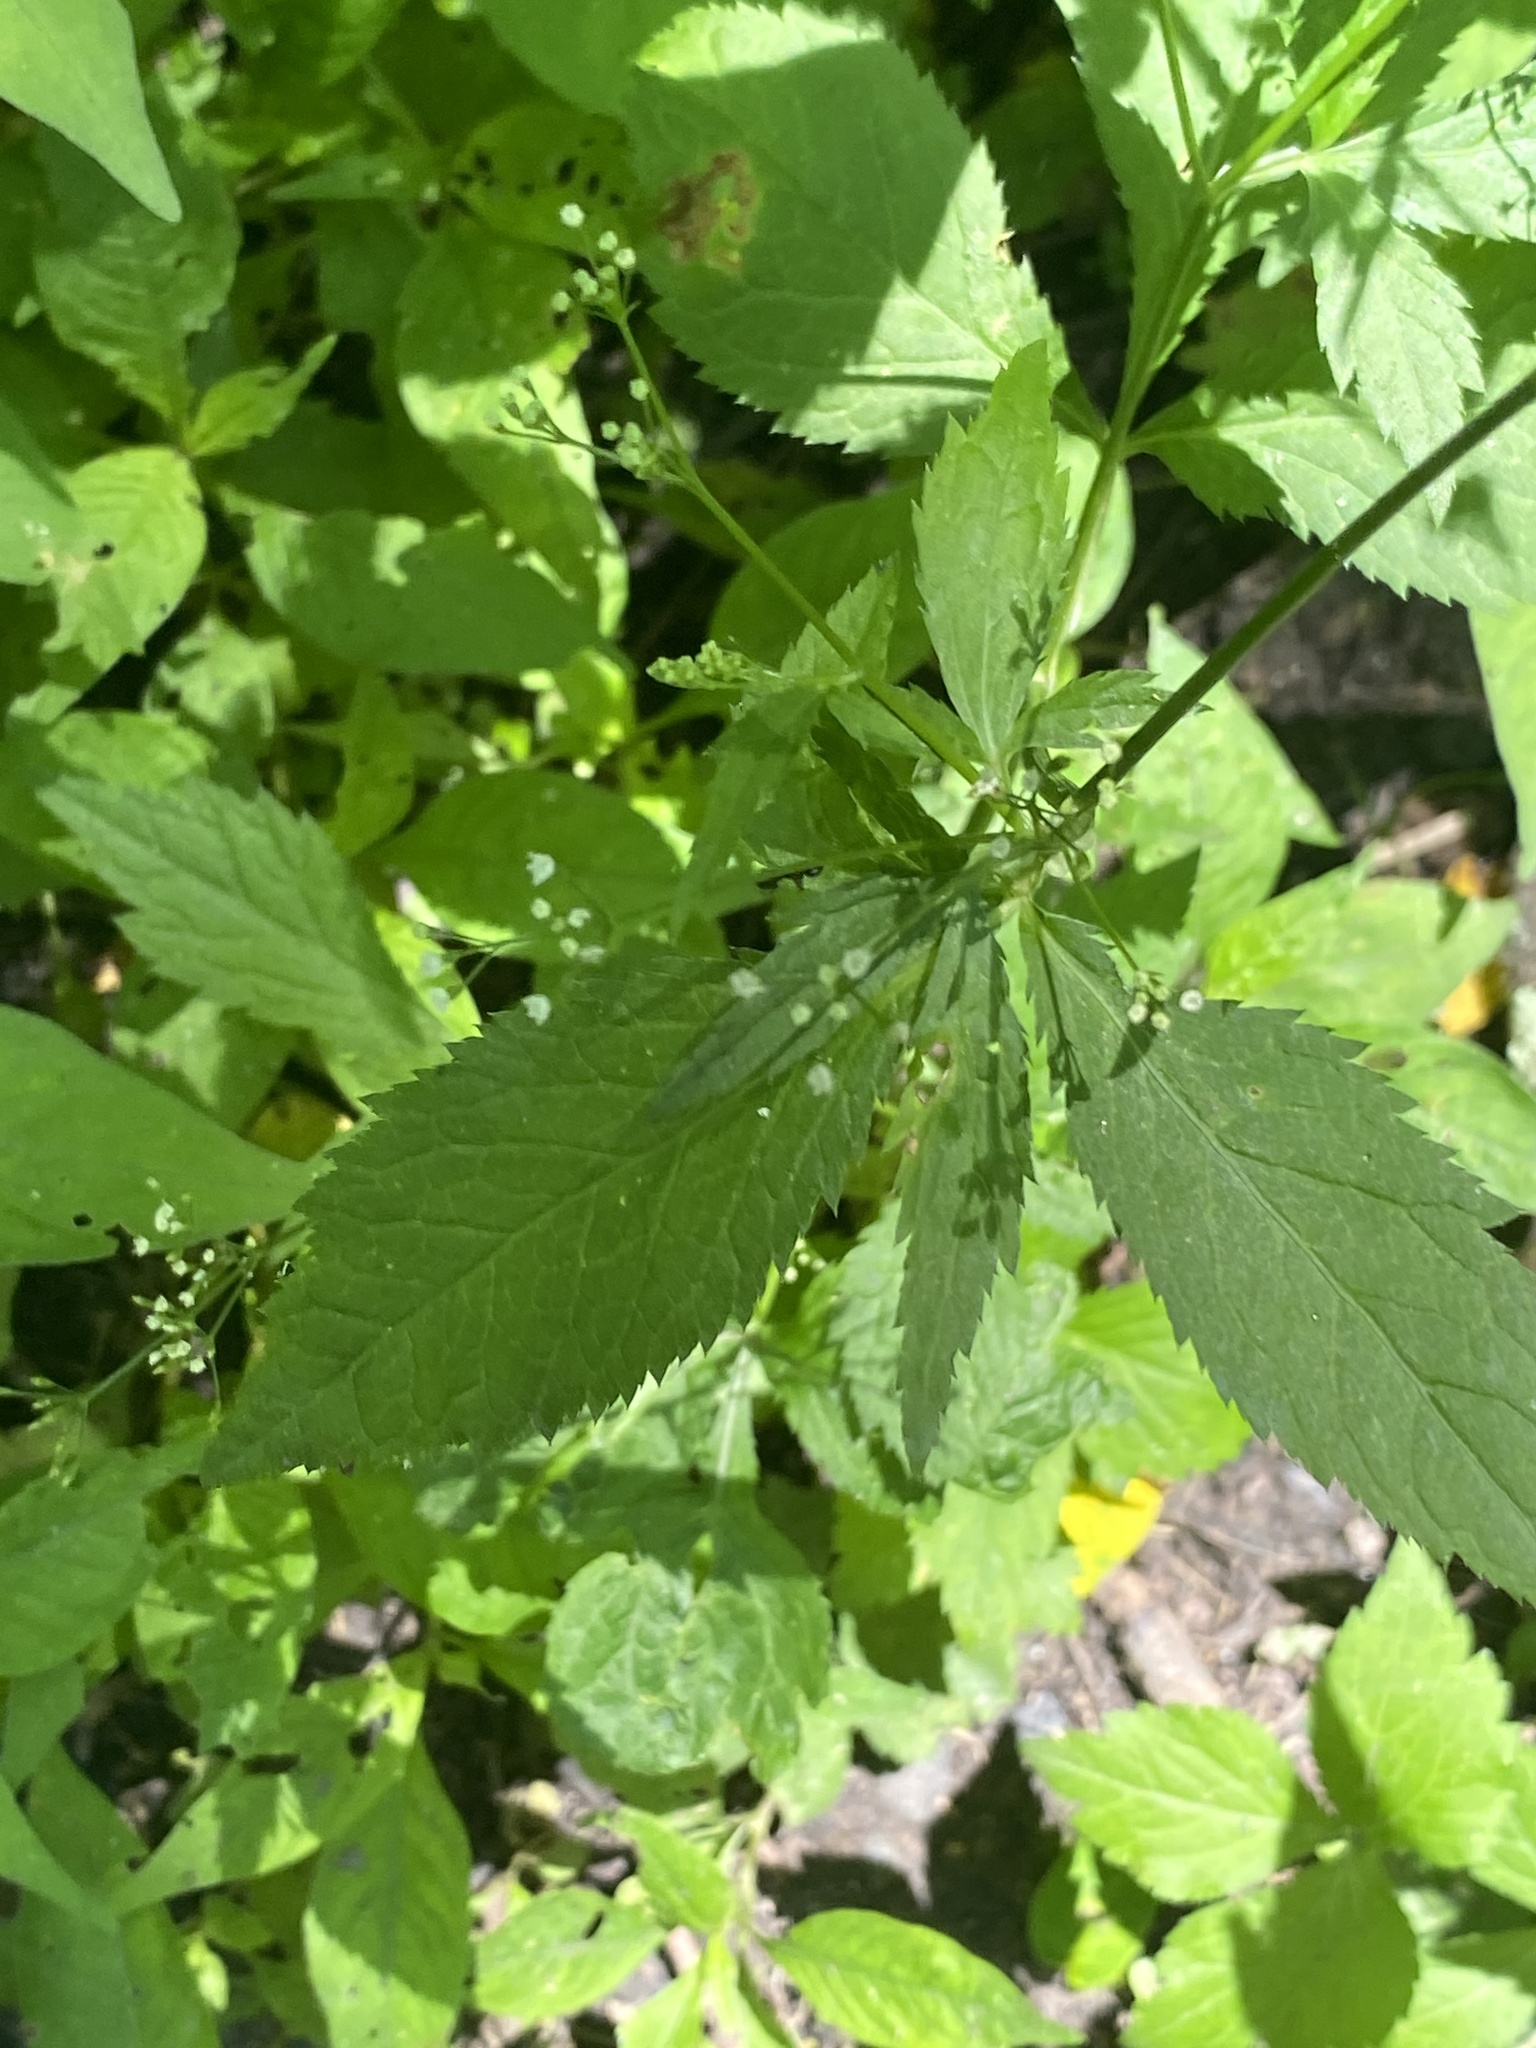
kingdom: Plantae
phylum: Tracheophyta
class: Magnoliopsida
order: Apiales
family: Apiaceae
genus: Cryptotaenia
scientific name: Cryptotaenia canadensis
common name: Honewort
